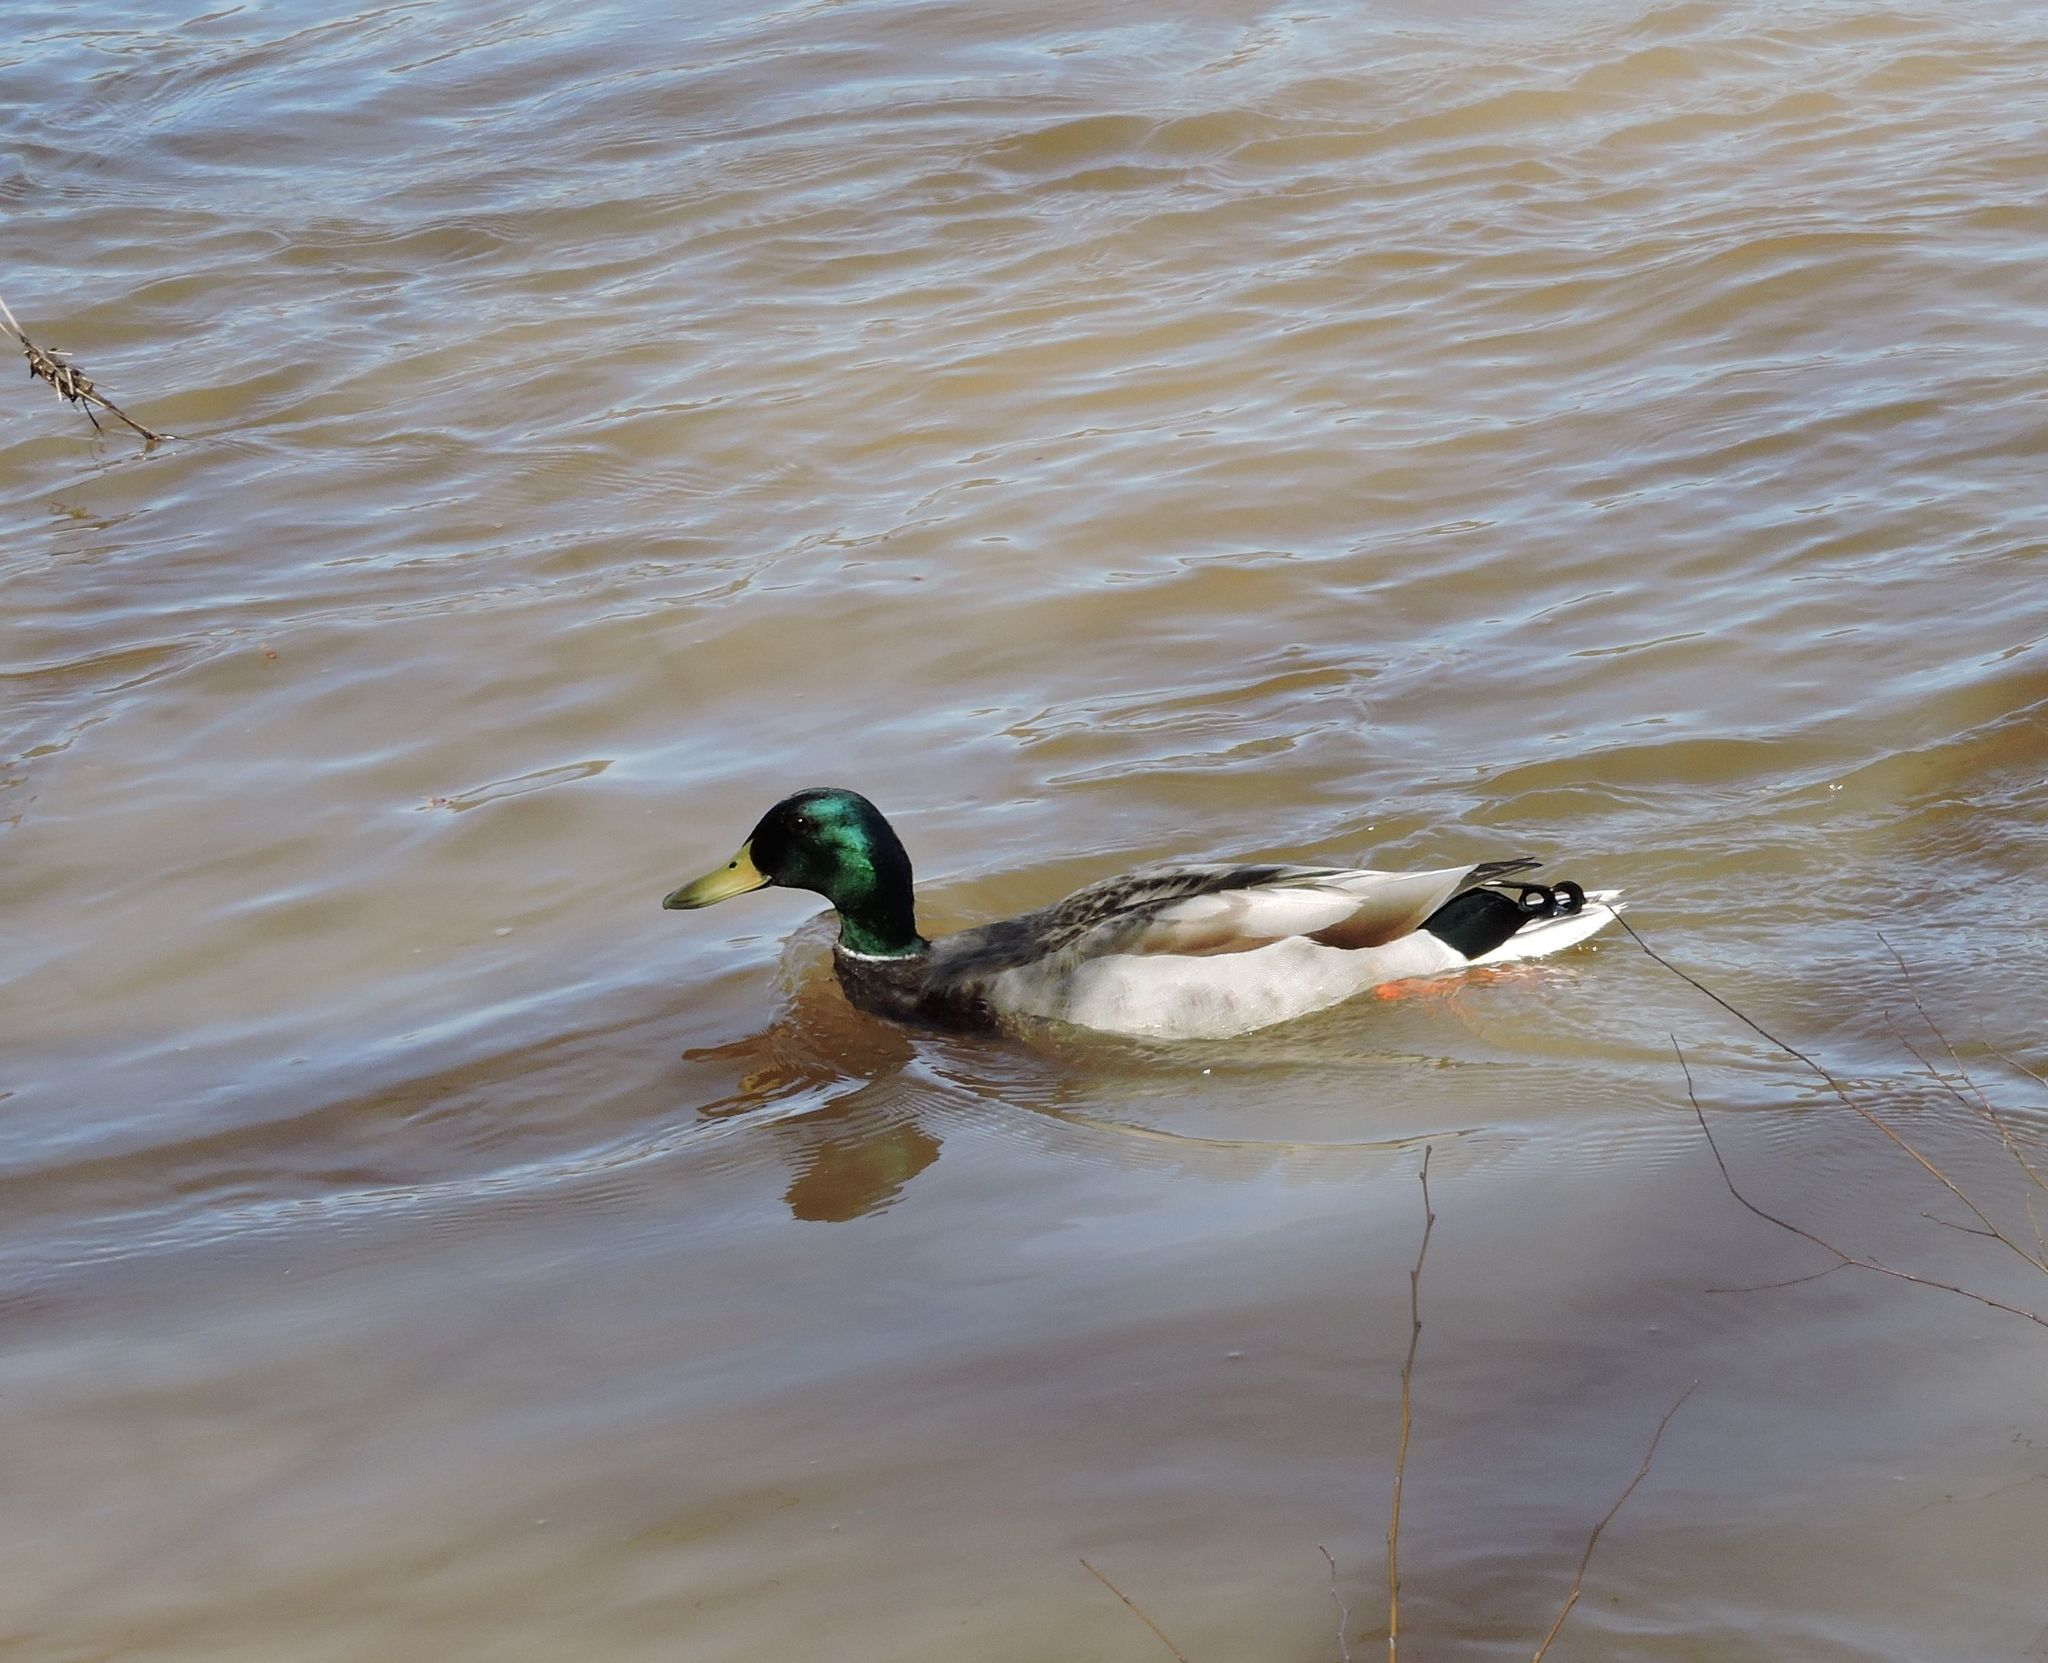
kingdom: Animalia
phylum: Chordata
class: Aves
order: Anseriformes
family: Anatidae
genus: Anas
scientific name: Anas platyrhynchos
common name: Mallard
